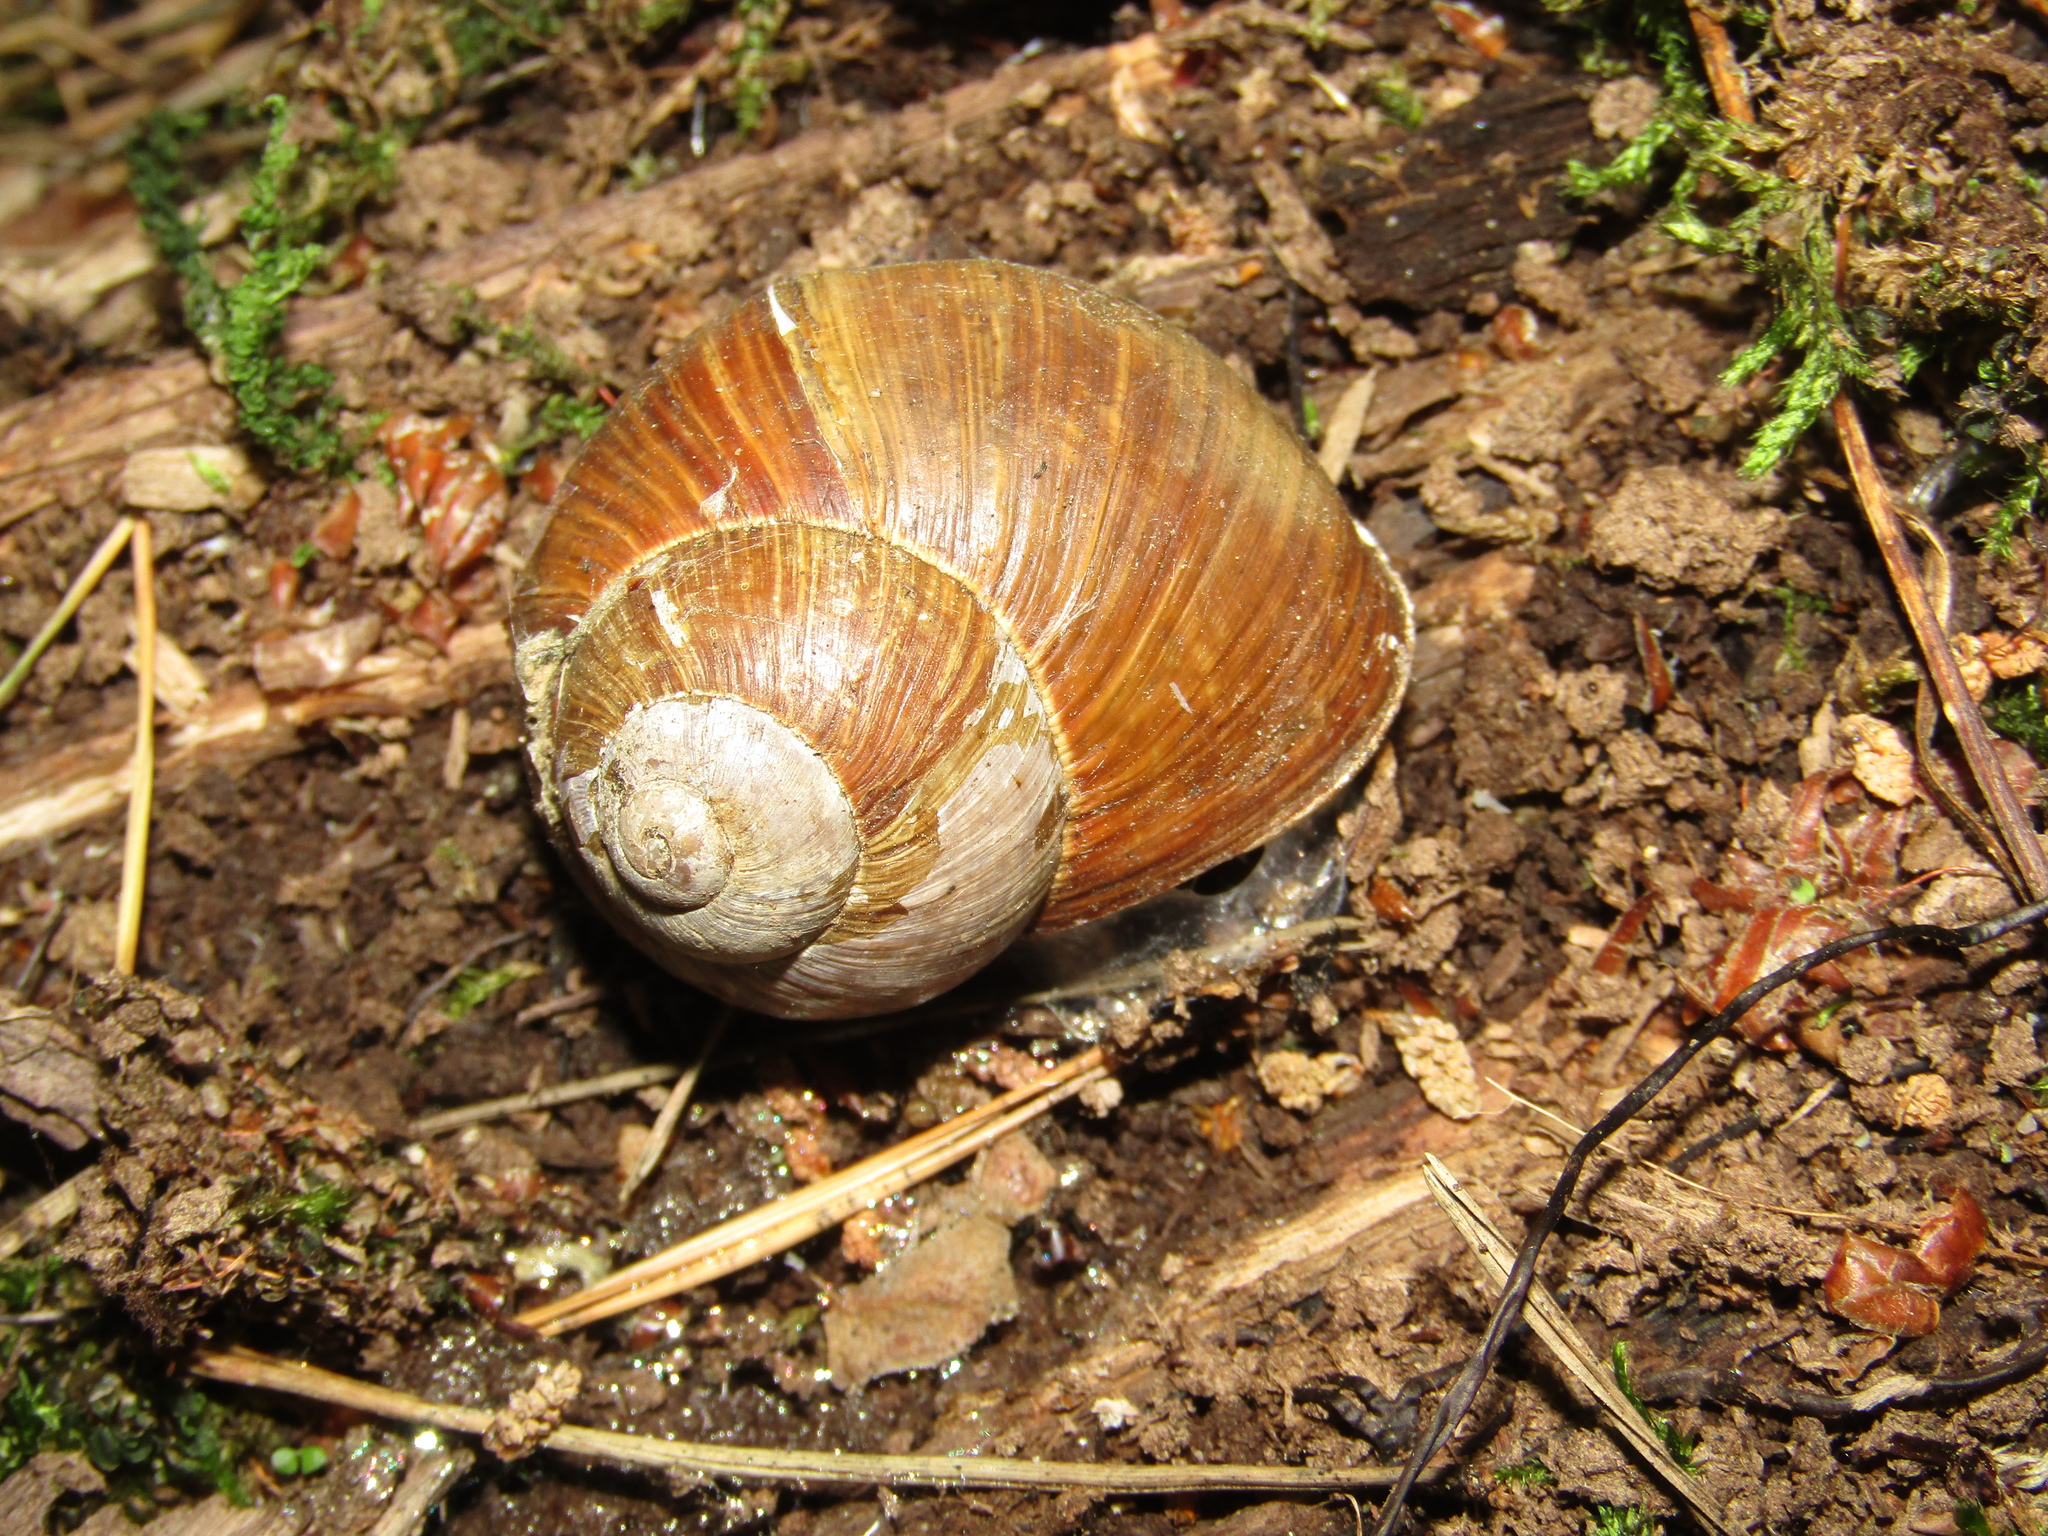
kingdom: Animalia
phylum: Mollusca
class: Gastropoda
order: Stylommatophora
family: Helicidae
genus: Helix
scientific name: Helix pomatia
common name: Roman snail
